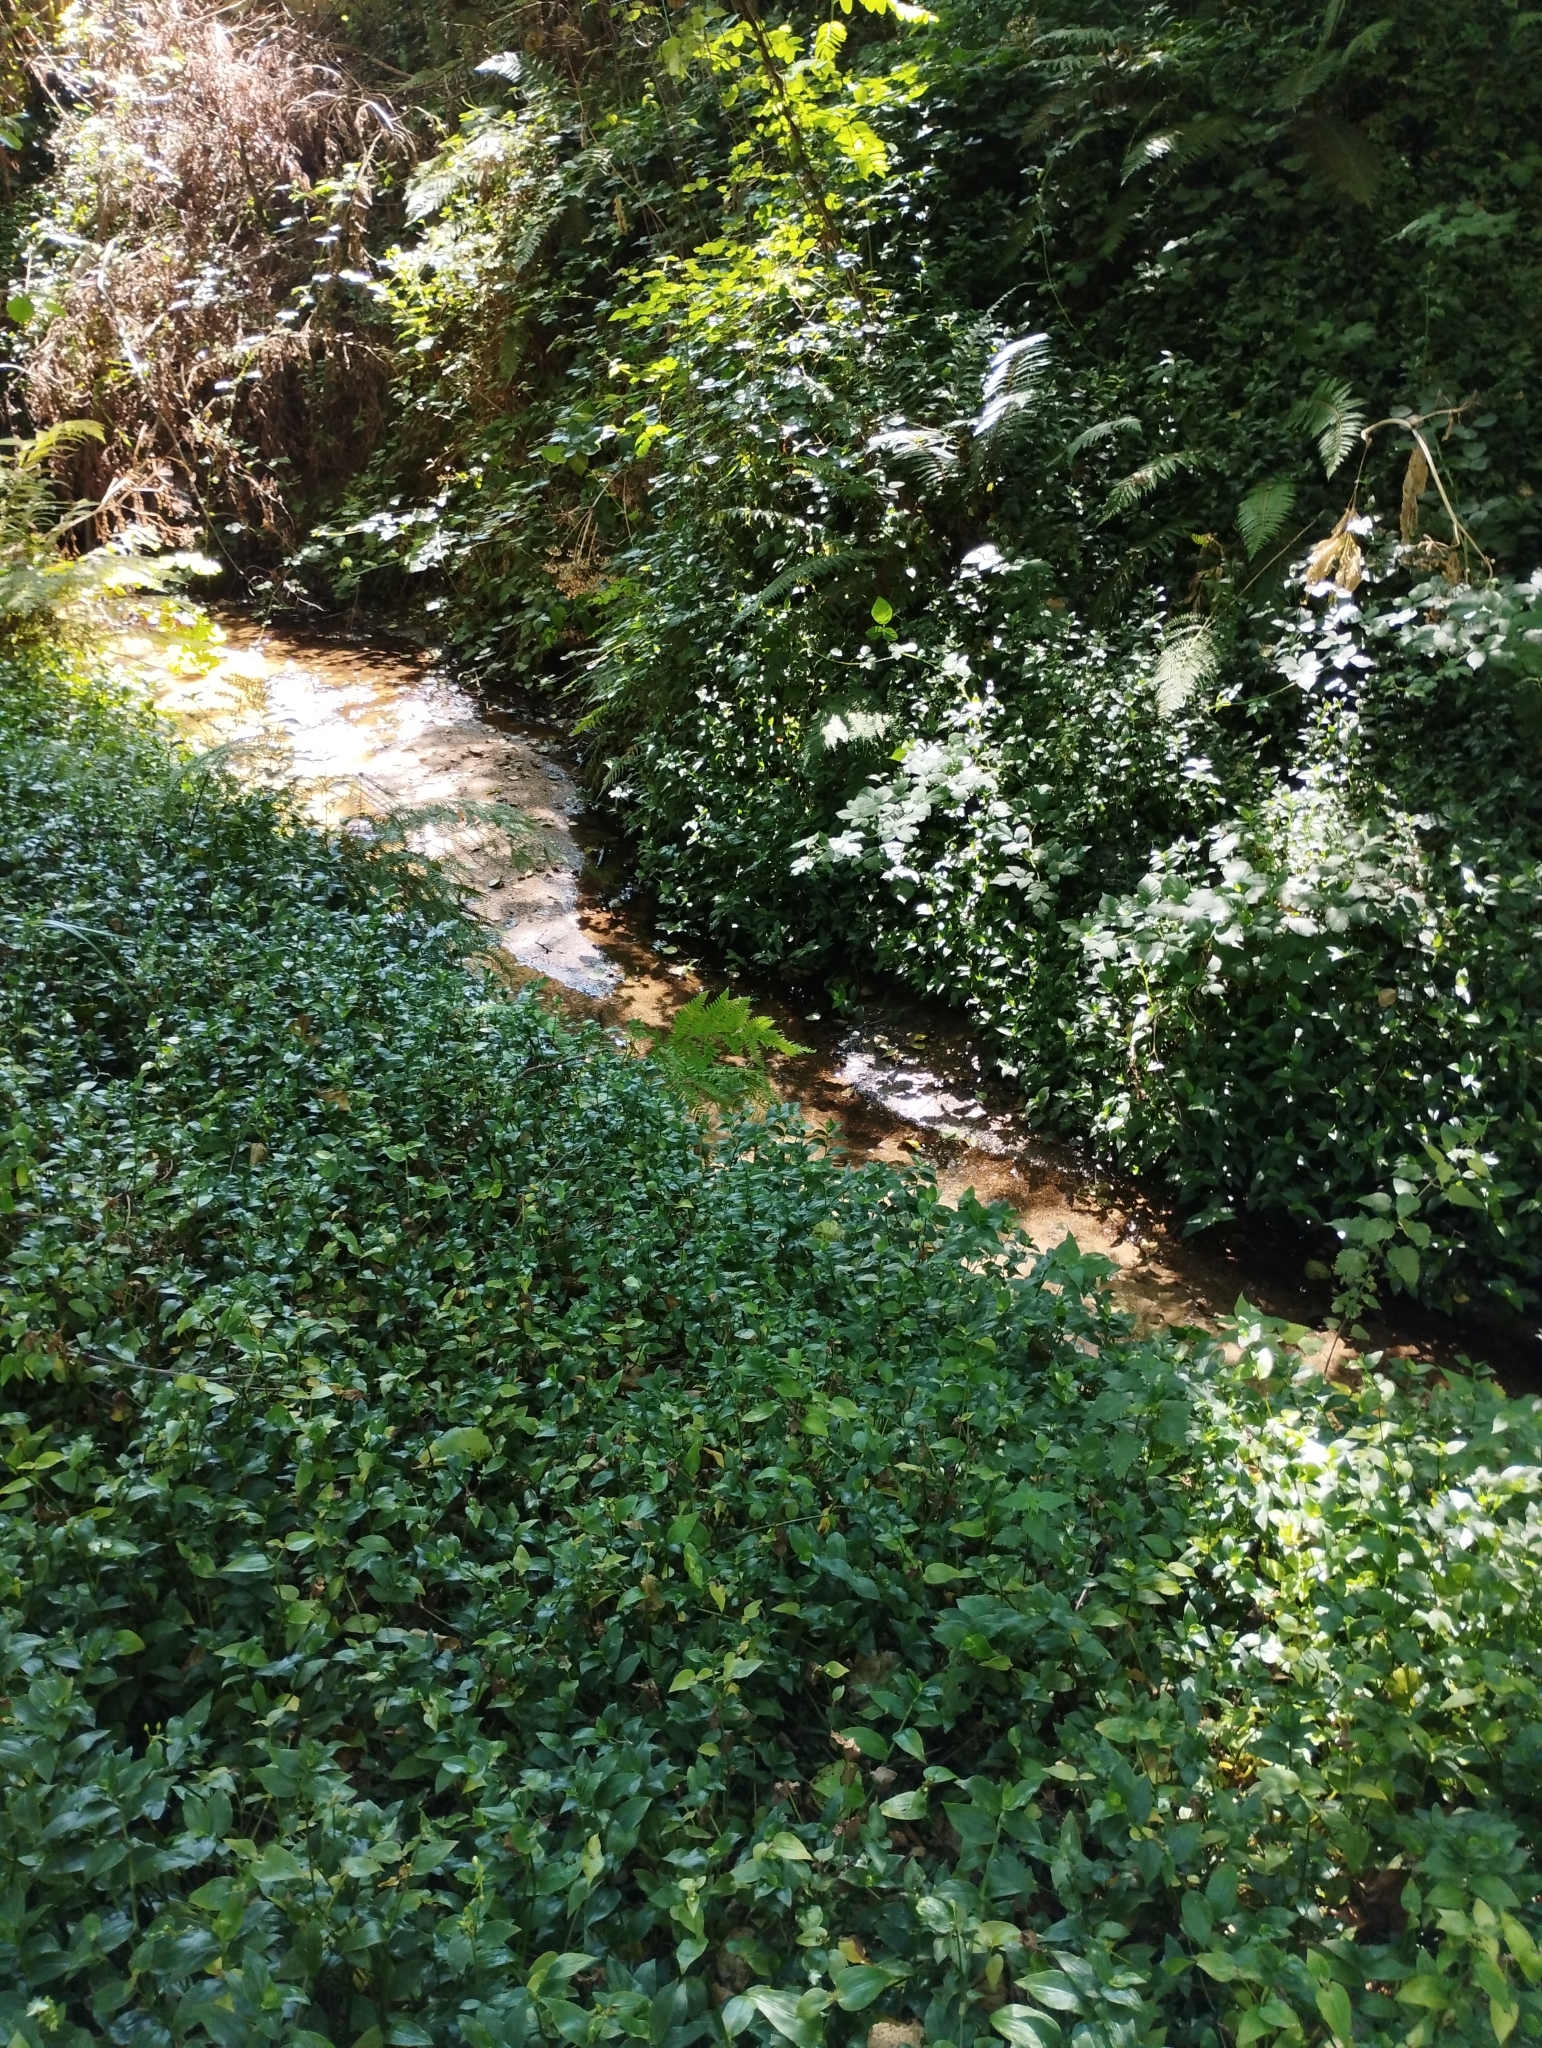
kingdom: Plantae
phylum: Tracheophyta
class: Liliopsida
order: Commelinales
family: Commelinaceae
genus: Tradescantia
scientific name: Tradescantia fluminensis
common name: Wandering-jew
